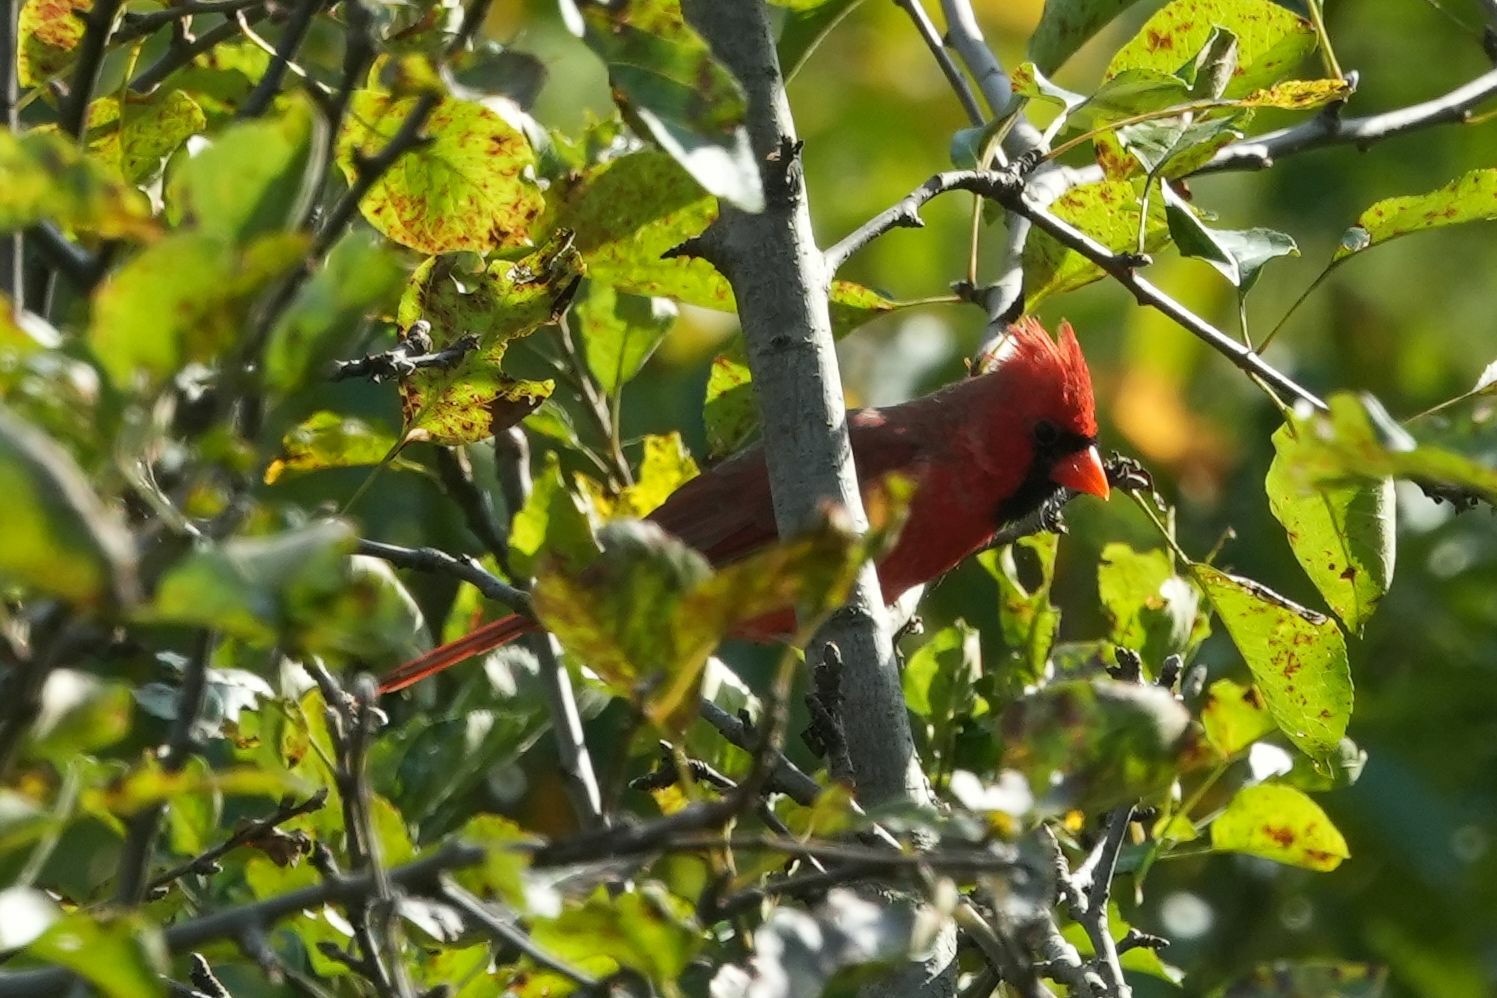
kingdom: Animalia
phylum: Chordata
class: Aves
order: Passeriformes
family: Cardinalidae
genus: Cardinalis
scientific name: Cardinalis cardinalis
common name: Northern cardinal
